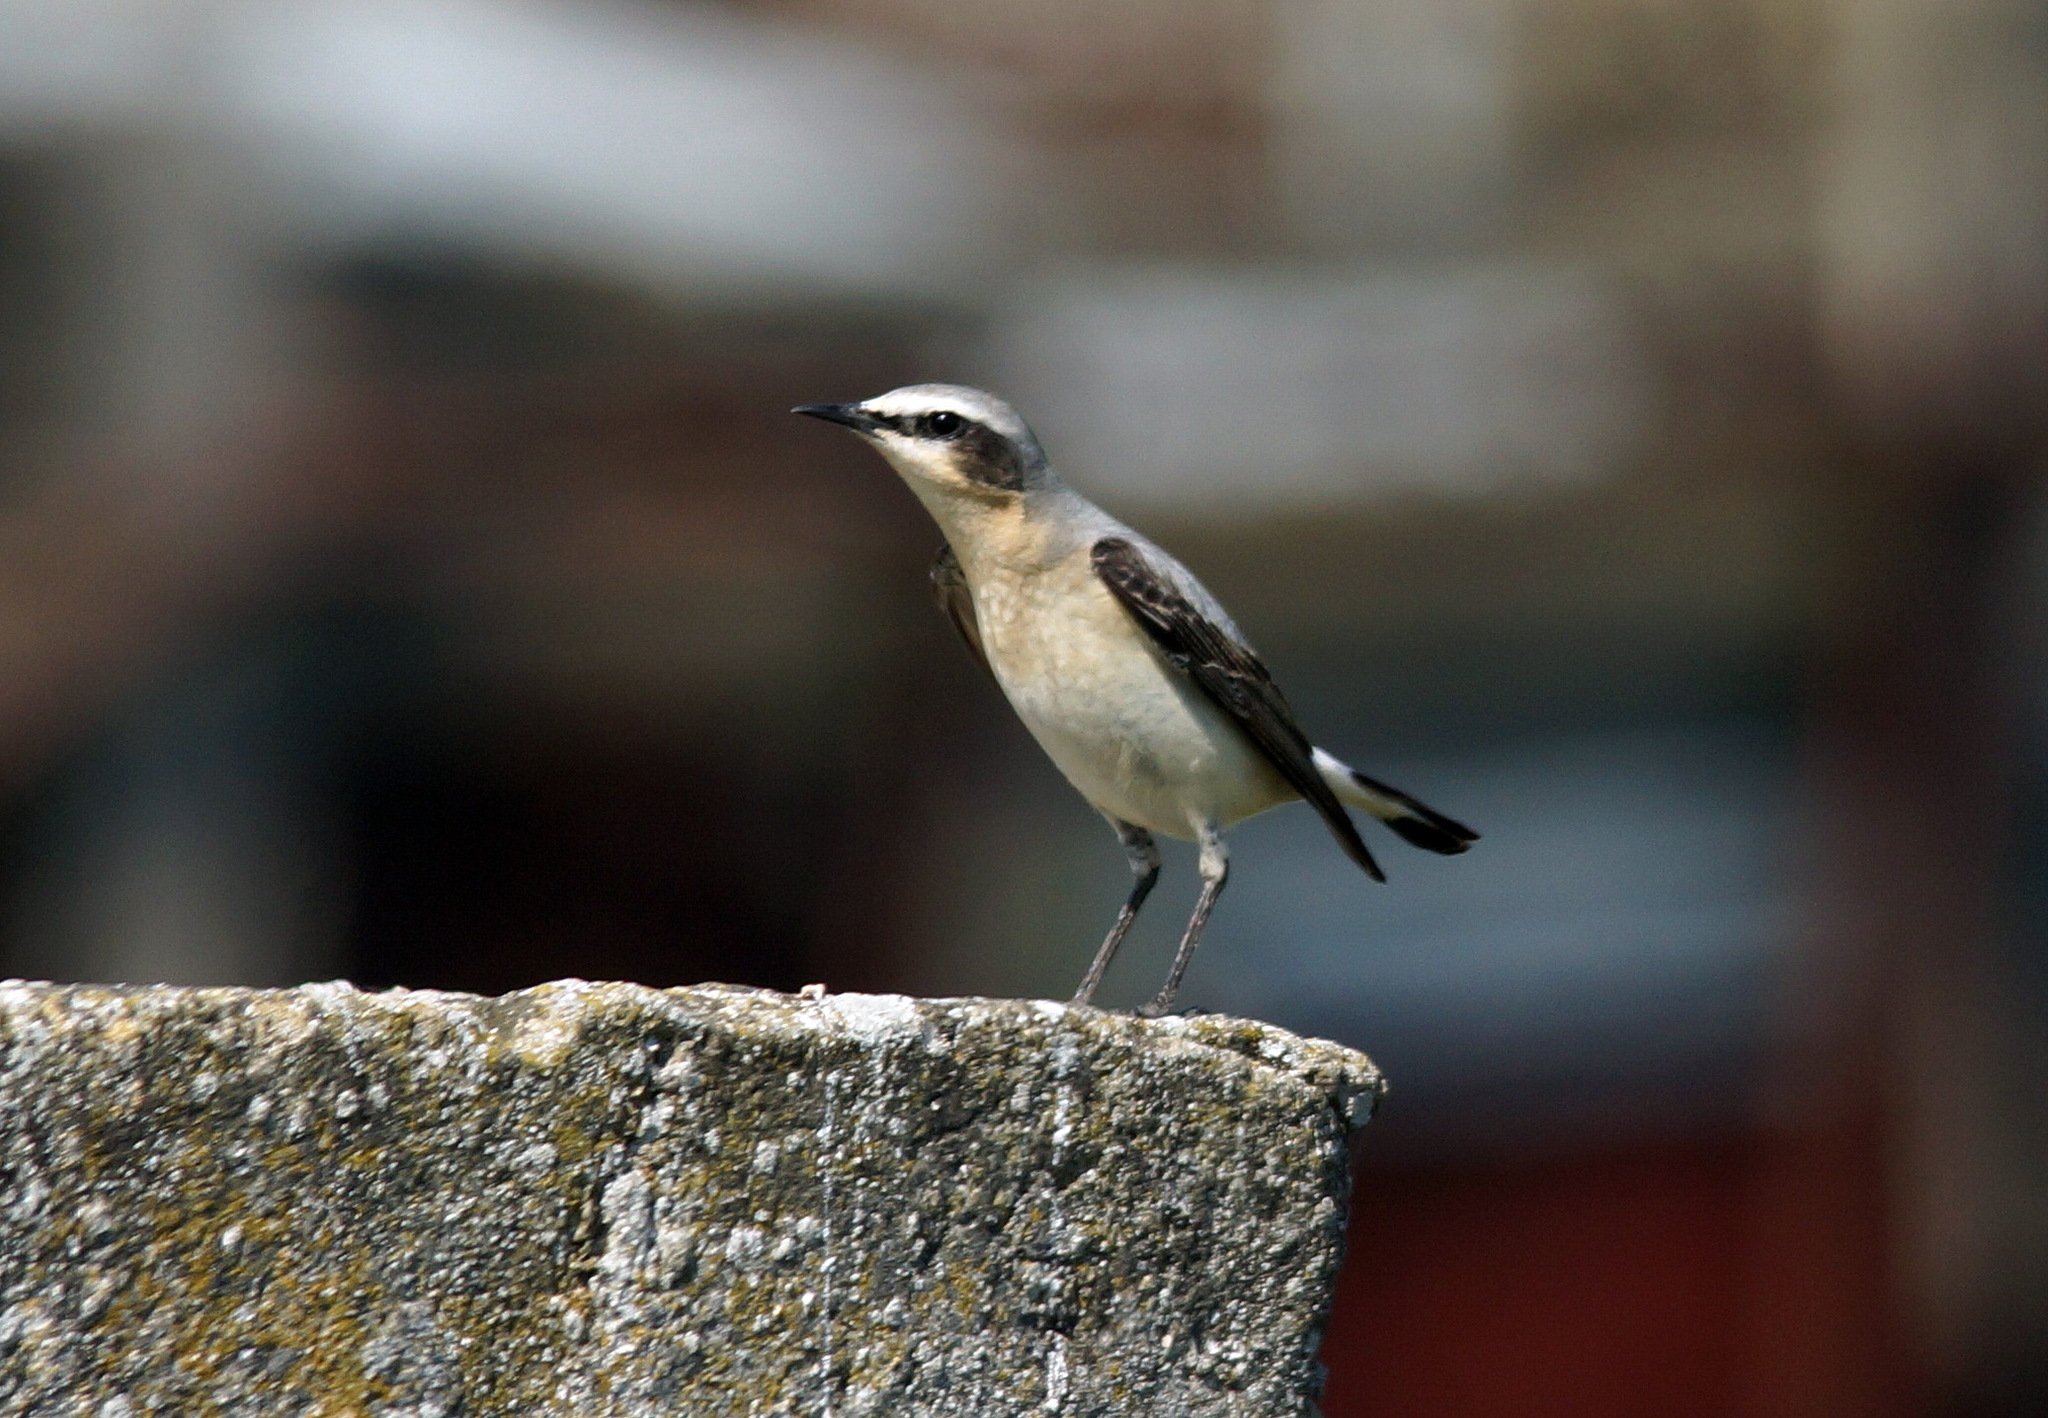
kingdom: Animalia
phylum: Chordata
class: Aves
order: Passeriformes
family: Muscicapidae
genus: Oenanthe
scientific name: Oenanthe oenanthe
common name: Northern wheatear
